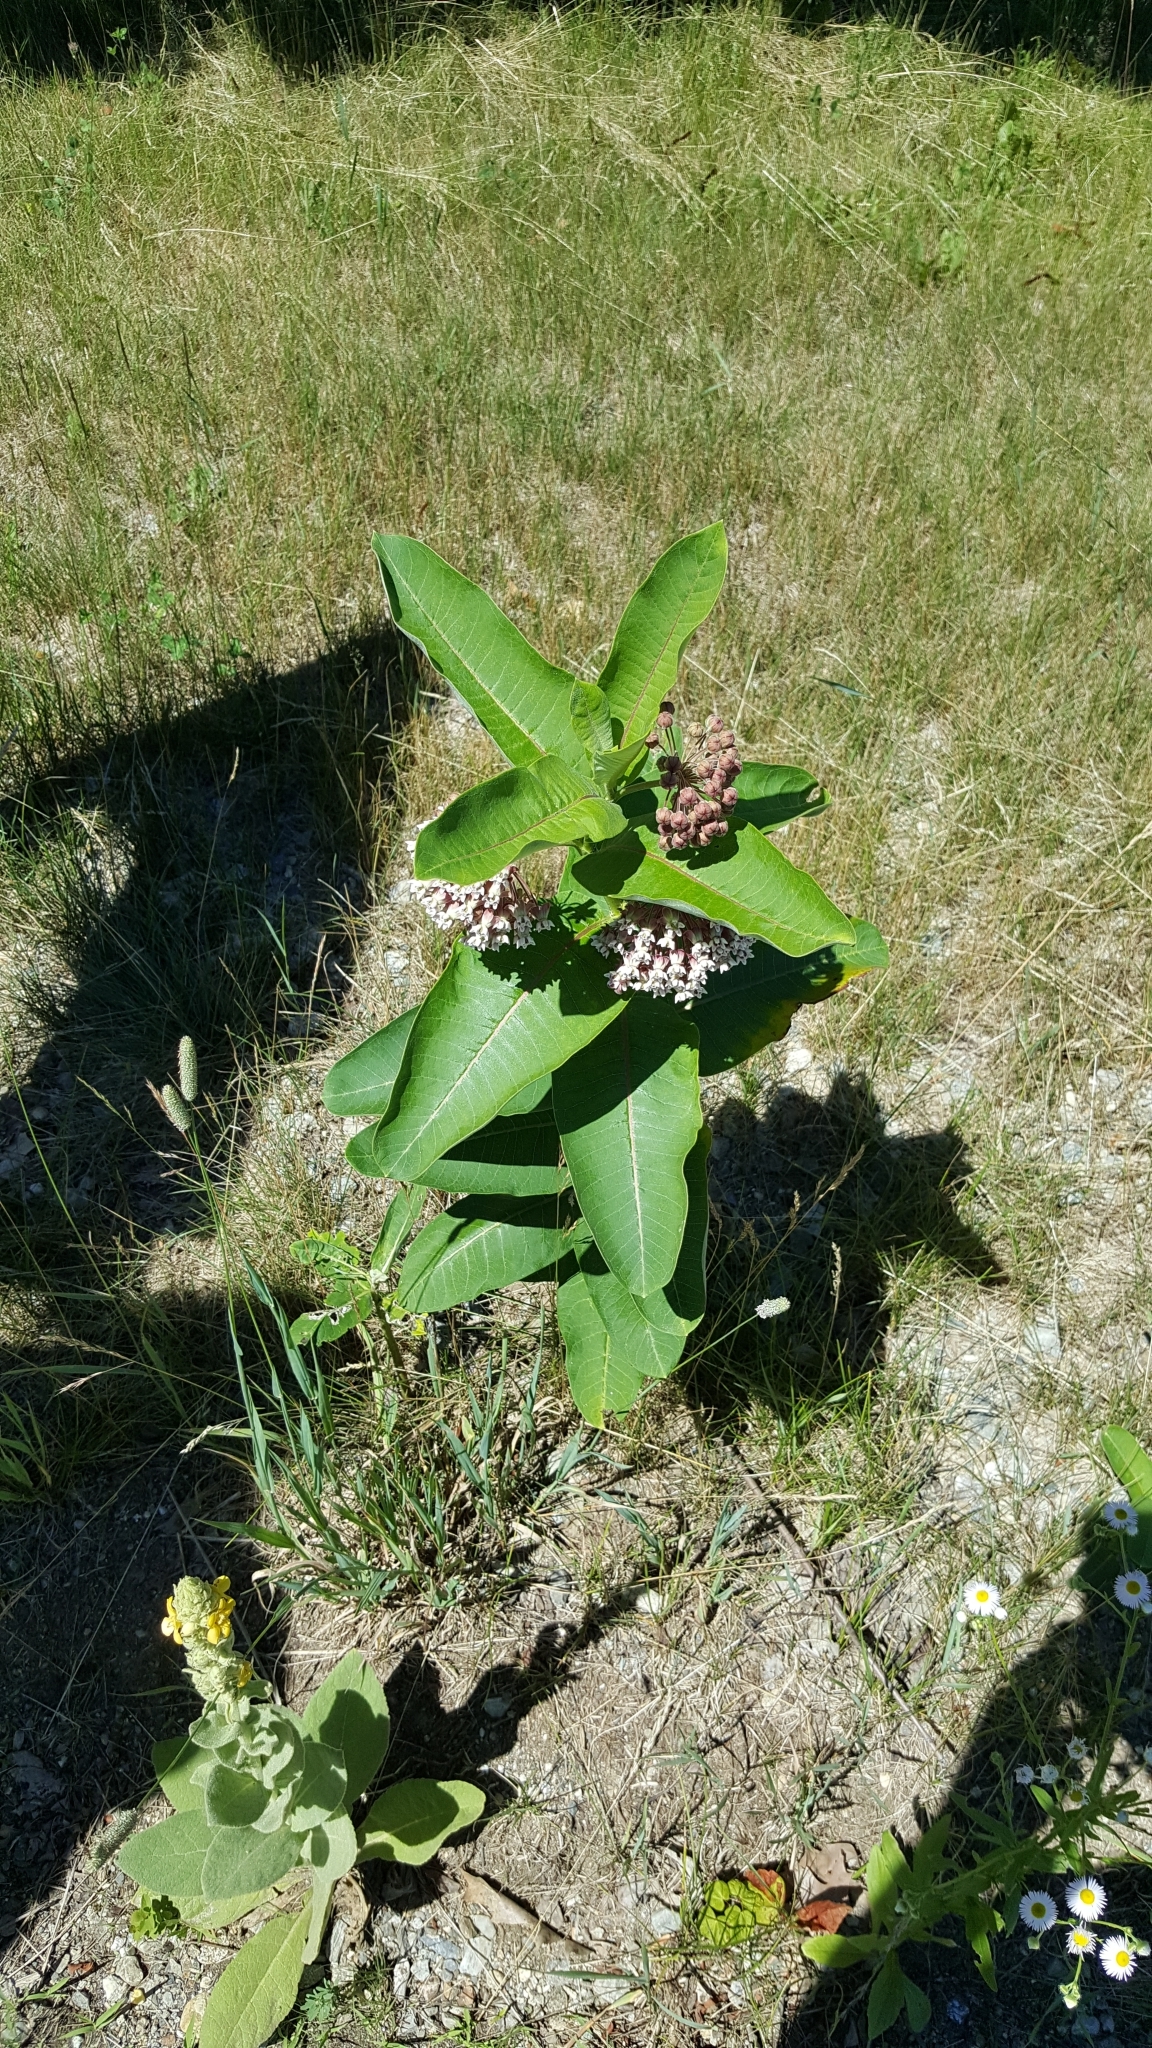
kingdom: Plantae
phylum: Tracheophyta
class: Magnoliopsida
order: Gentianales
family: Apocynaceae
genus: Asclepias
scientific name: Asclepias syriaca
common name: Common milkweed
